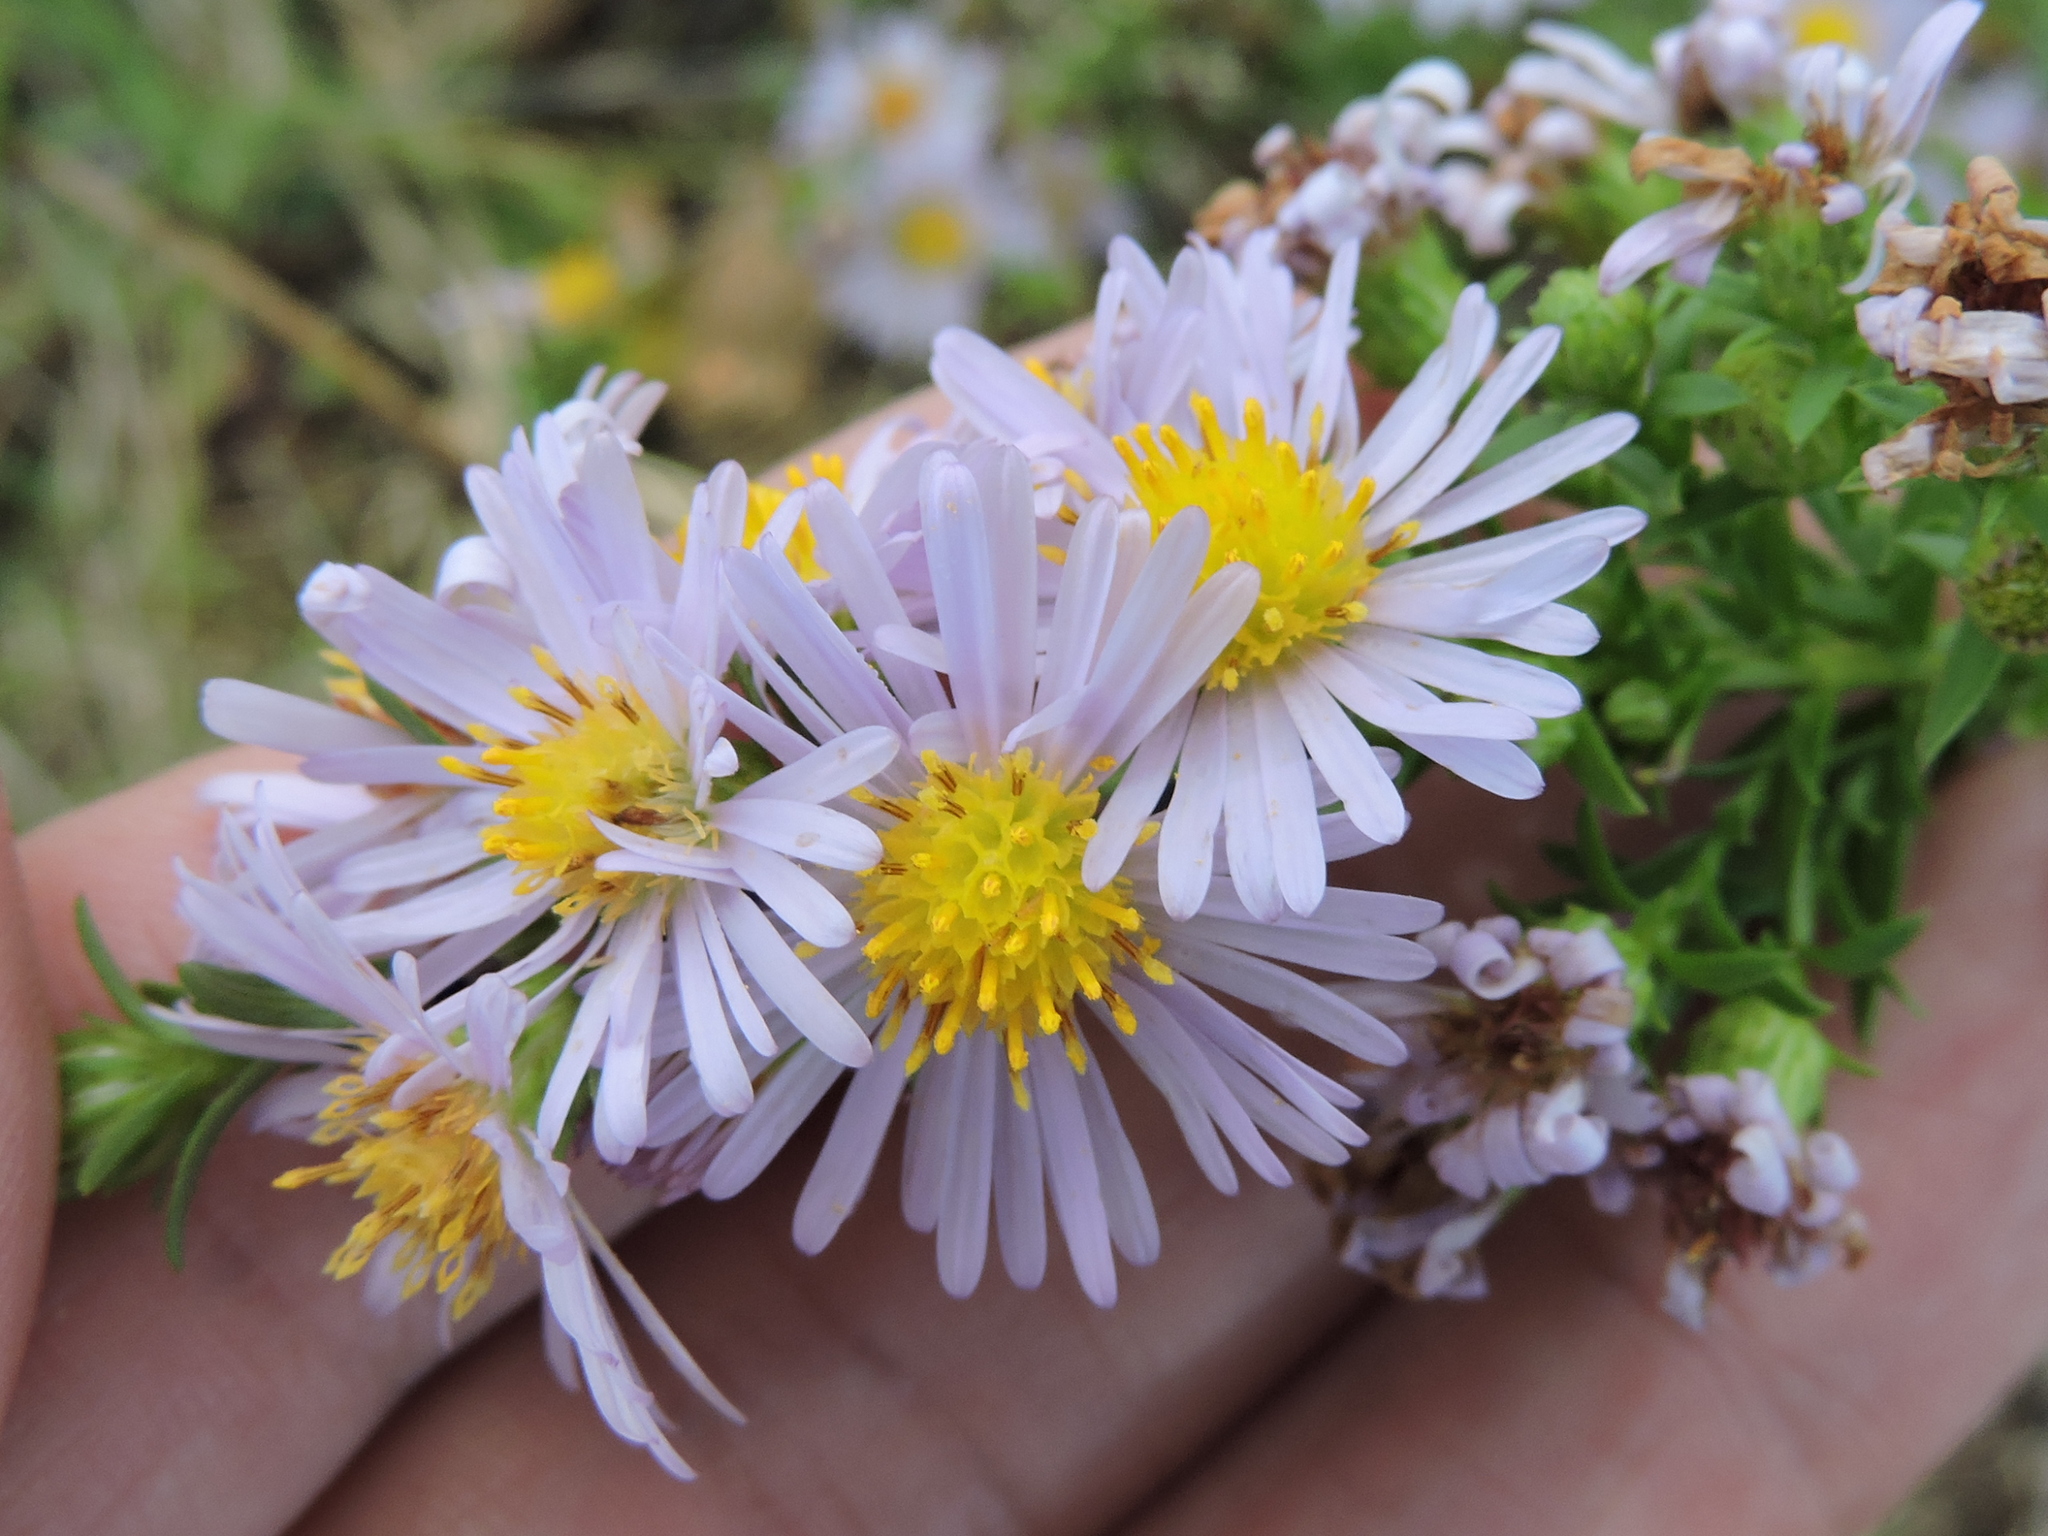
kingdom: Plantae
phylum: Tracheophyta
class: Magnoliopsida
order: Asterales
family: Asteraceae
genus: Symphyotrichum
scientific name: Symphyotrichum lanceolatum
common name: Panicled aster
